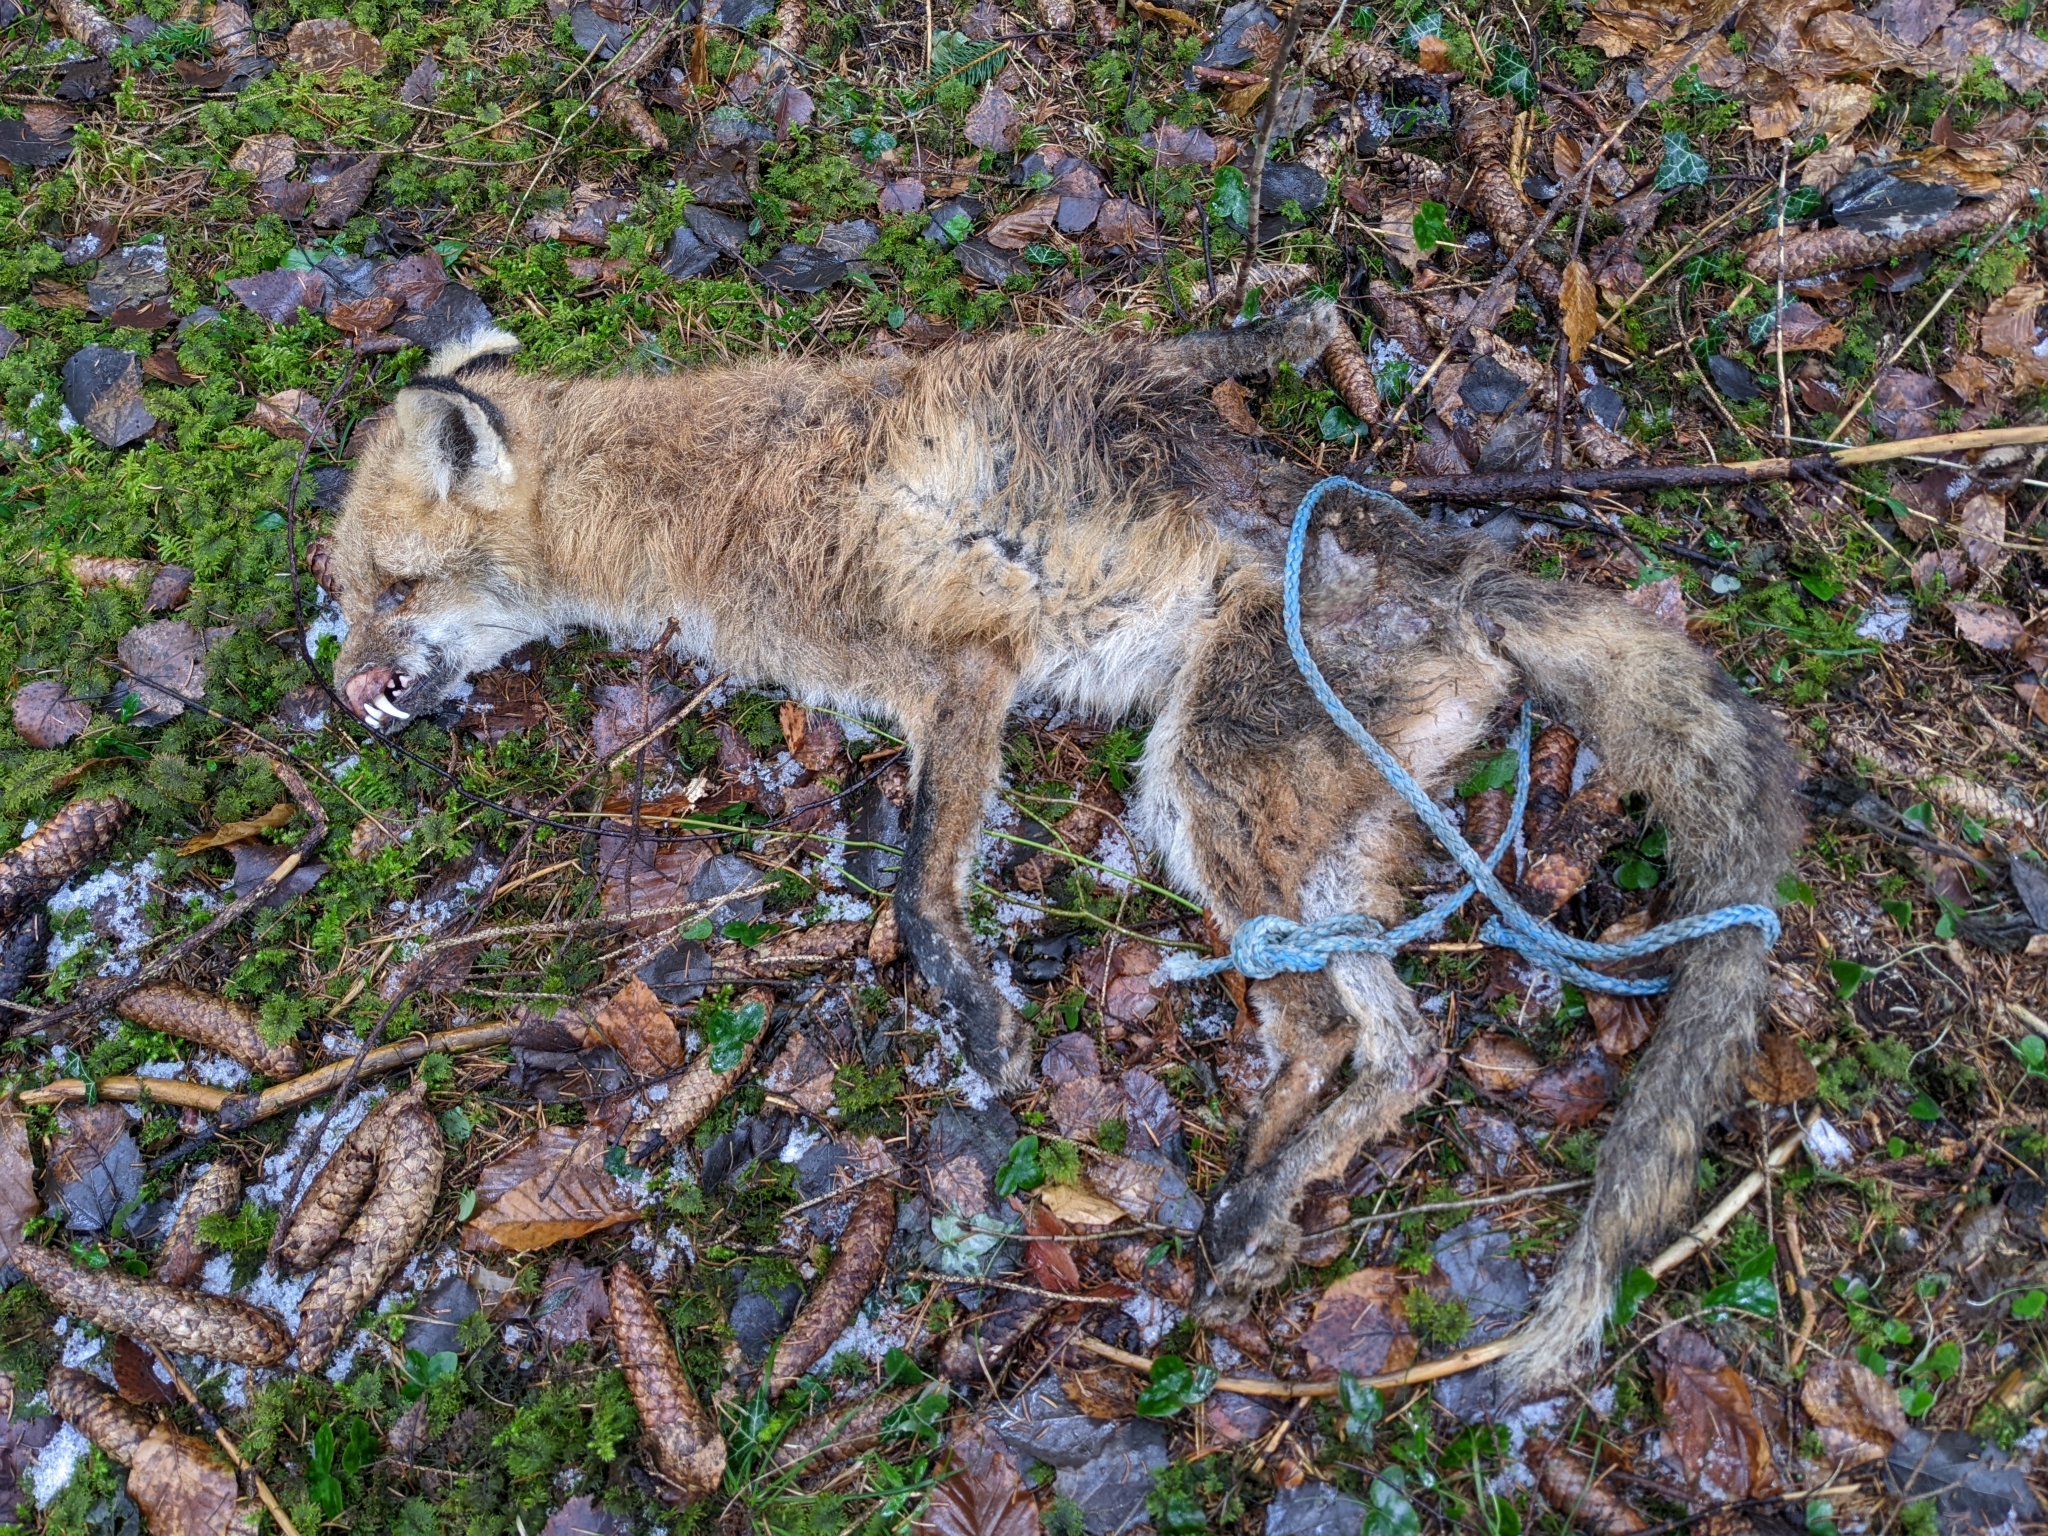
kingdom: Animalia
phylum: Chordata
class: Mammalia
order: Carnivora
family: Canidae
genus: Vulpes
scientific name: Vulpes vulpes
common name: Red fox
